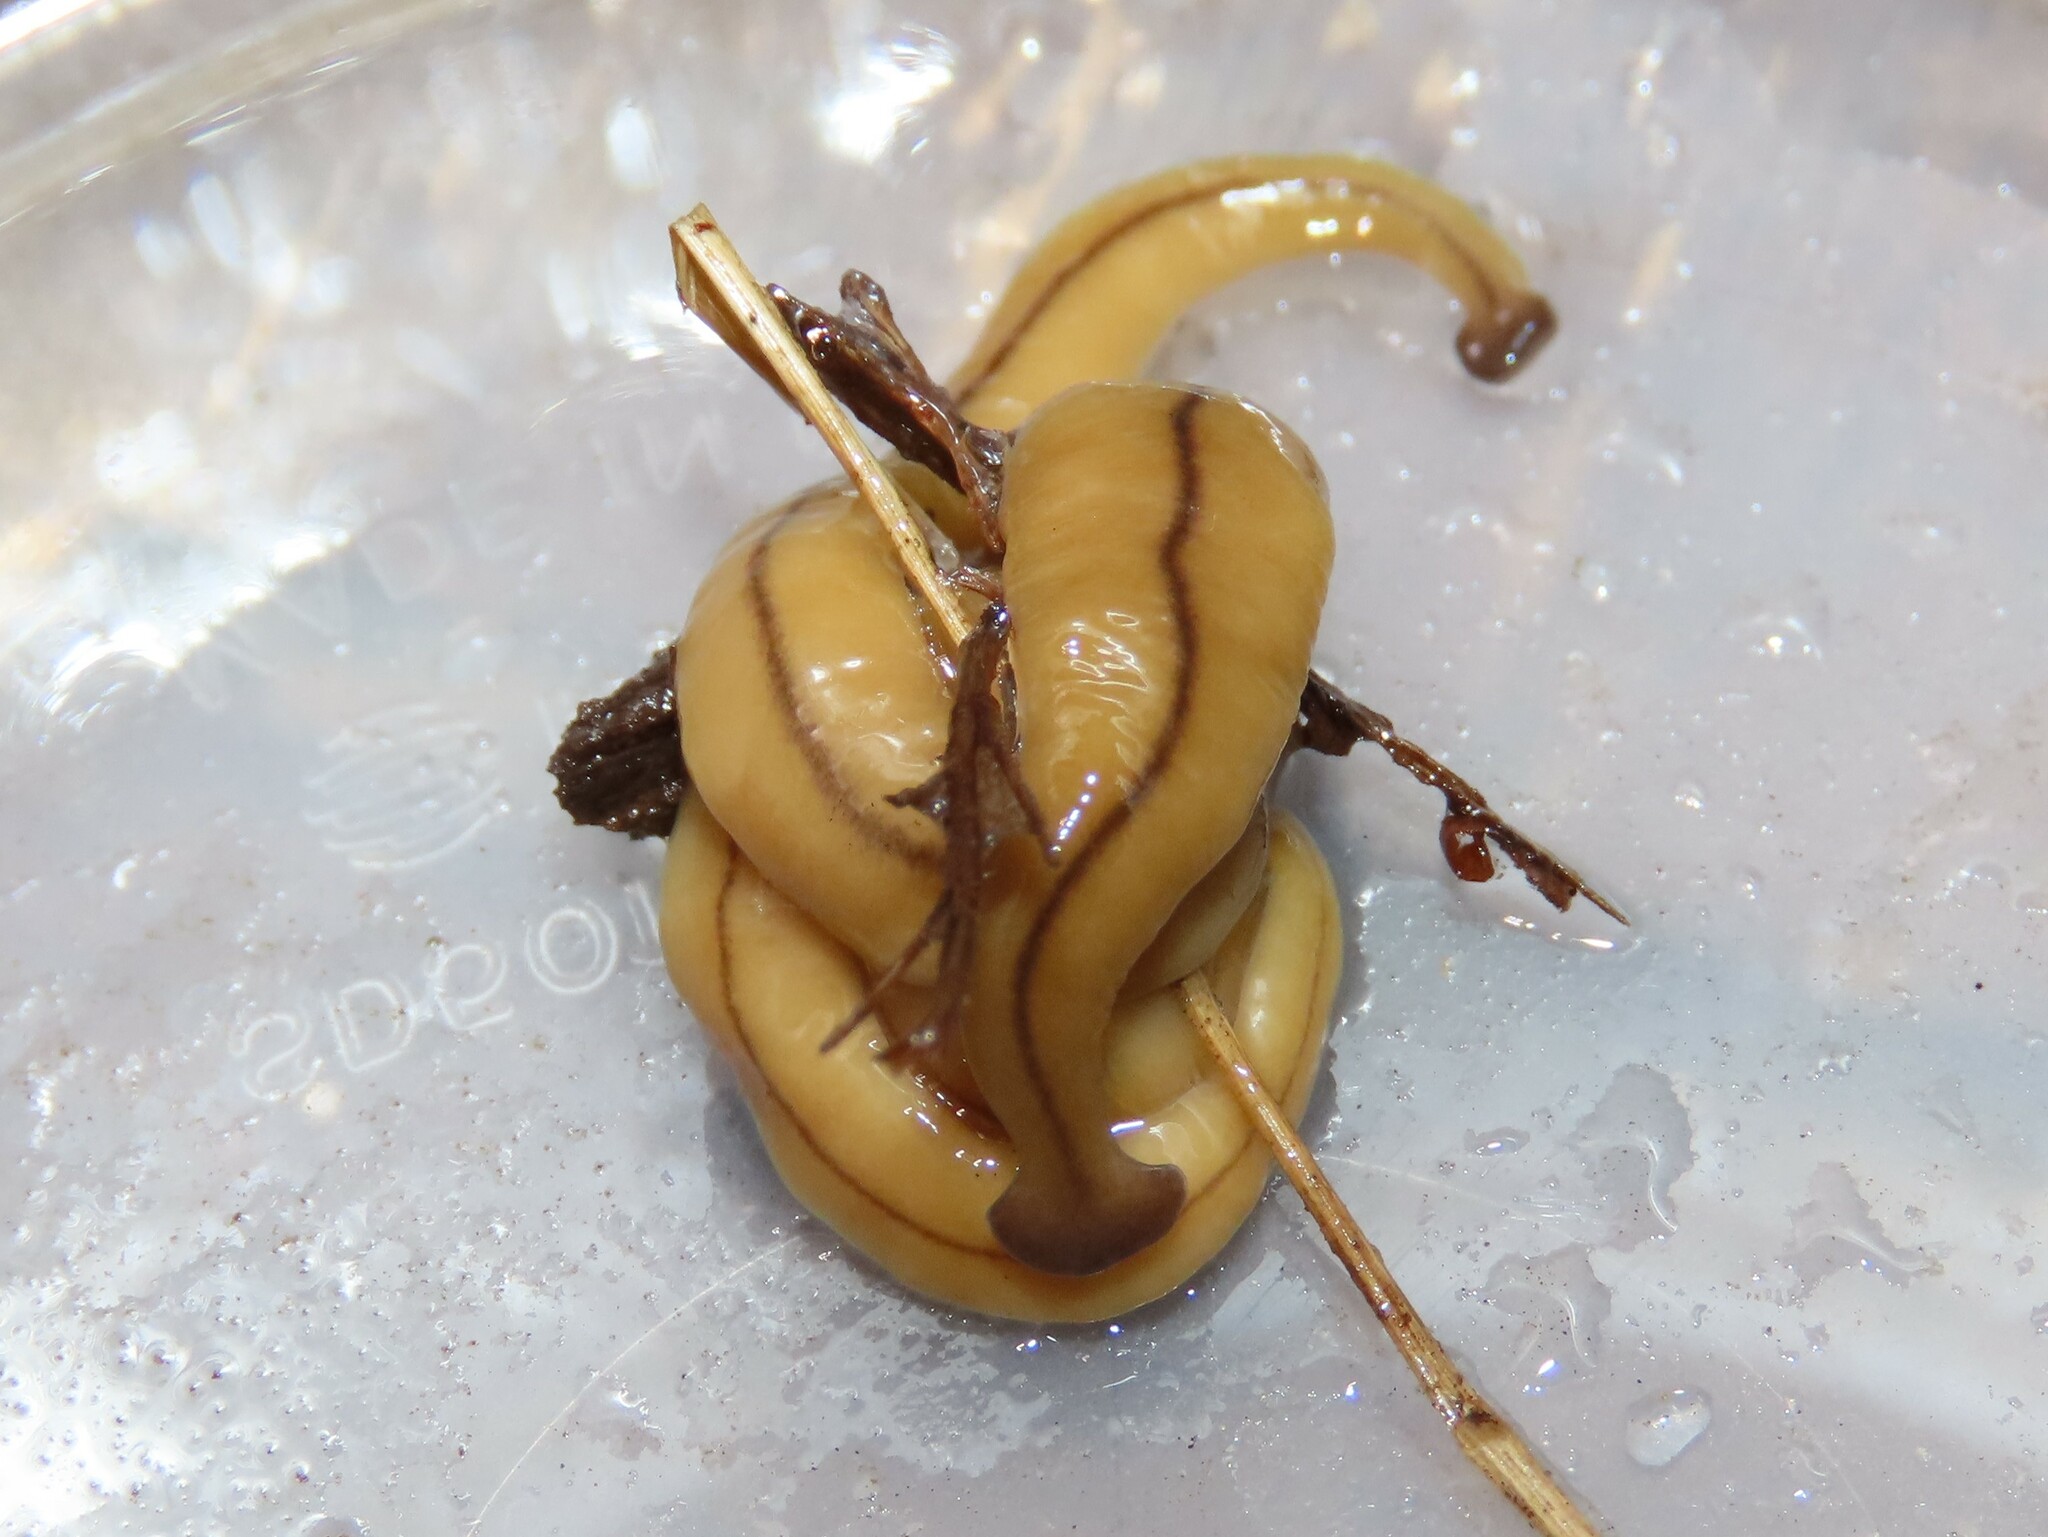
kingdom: Animalia
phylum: Platyhelminthes
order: Tricladida
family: Geoplanidae
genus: Bipalium
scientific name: Bipalium adventitium
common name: Land planarian
